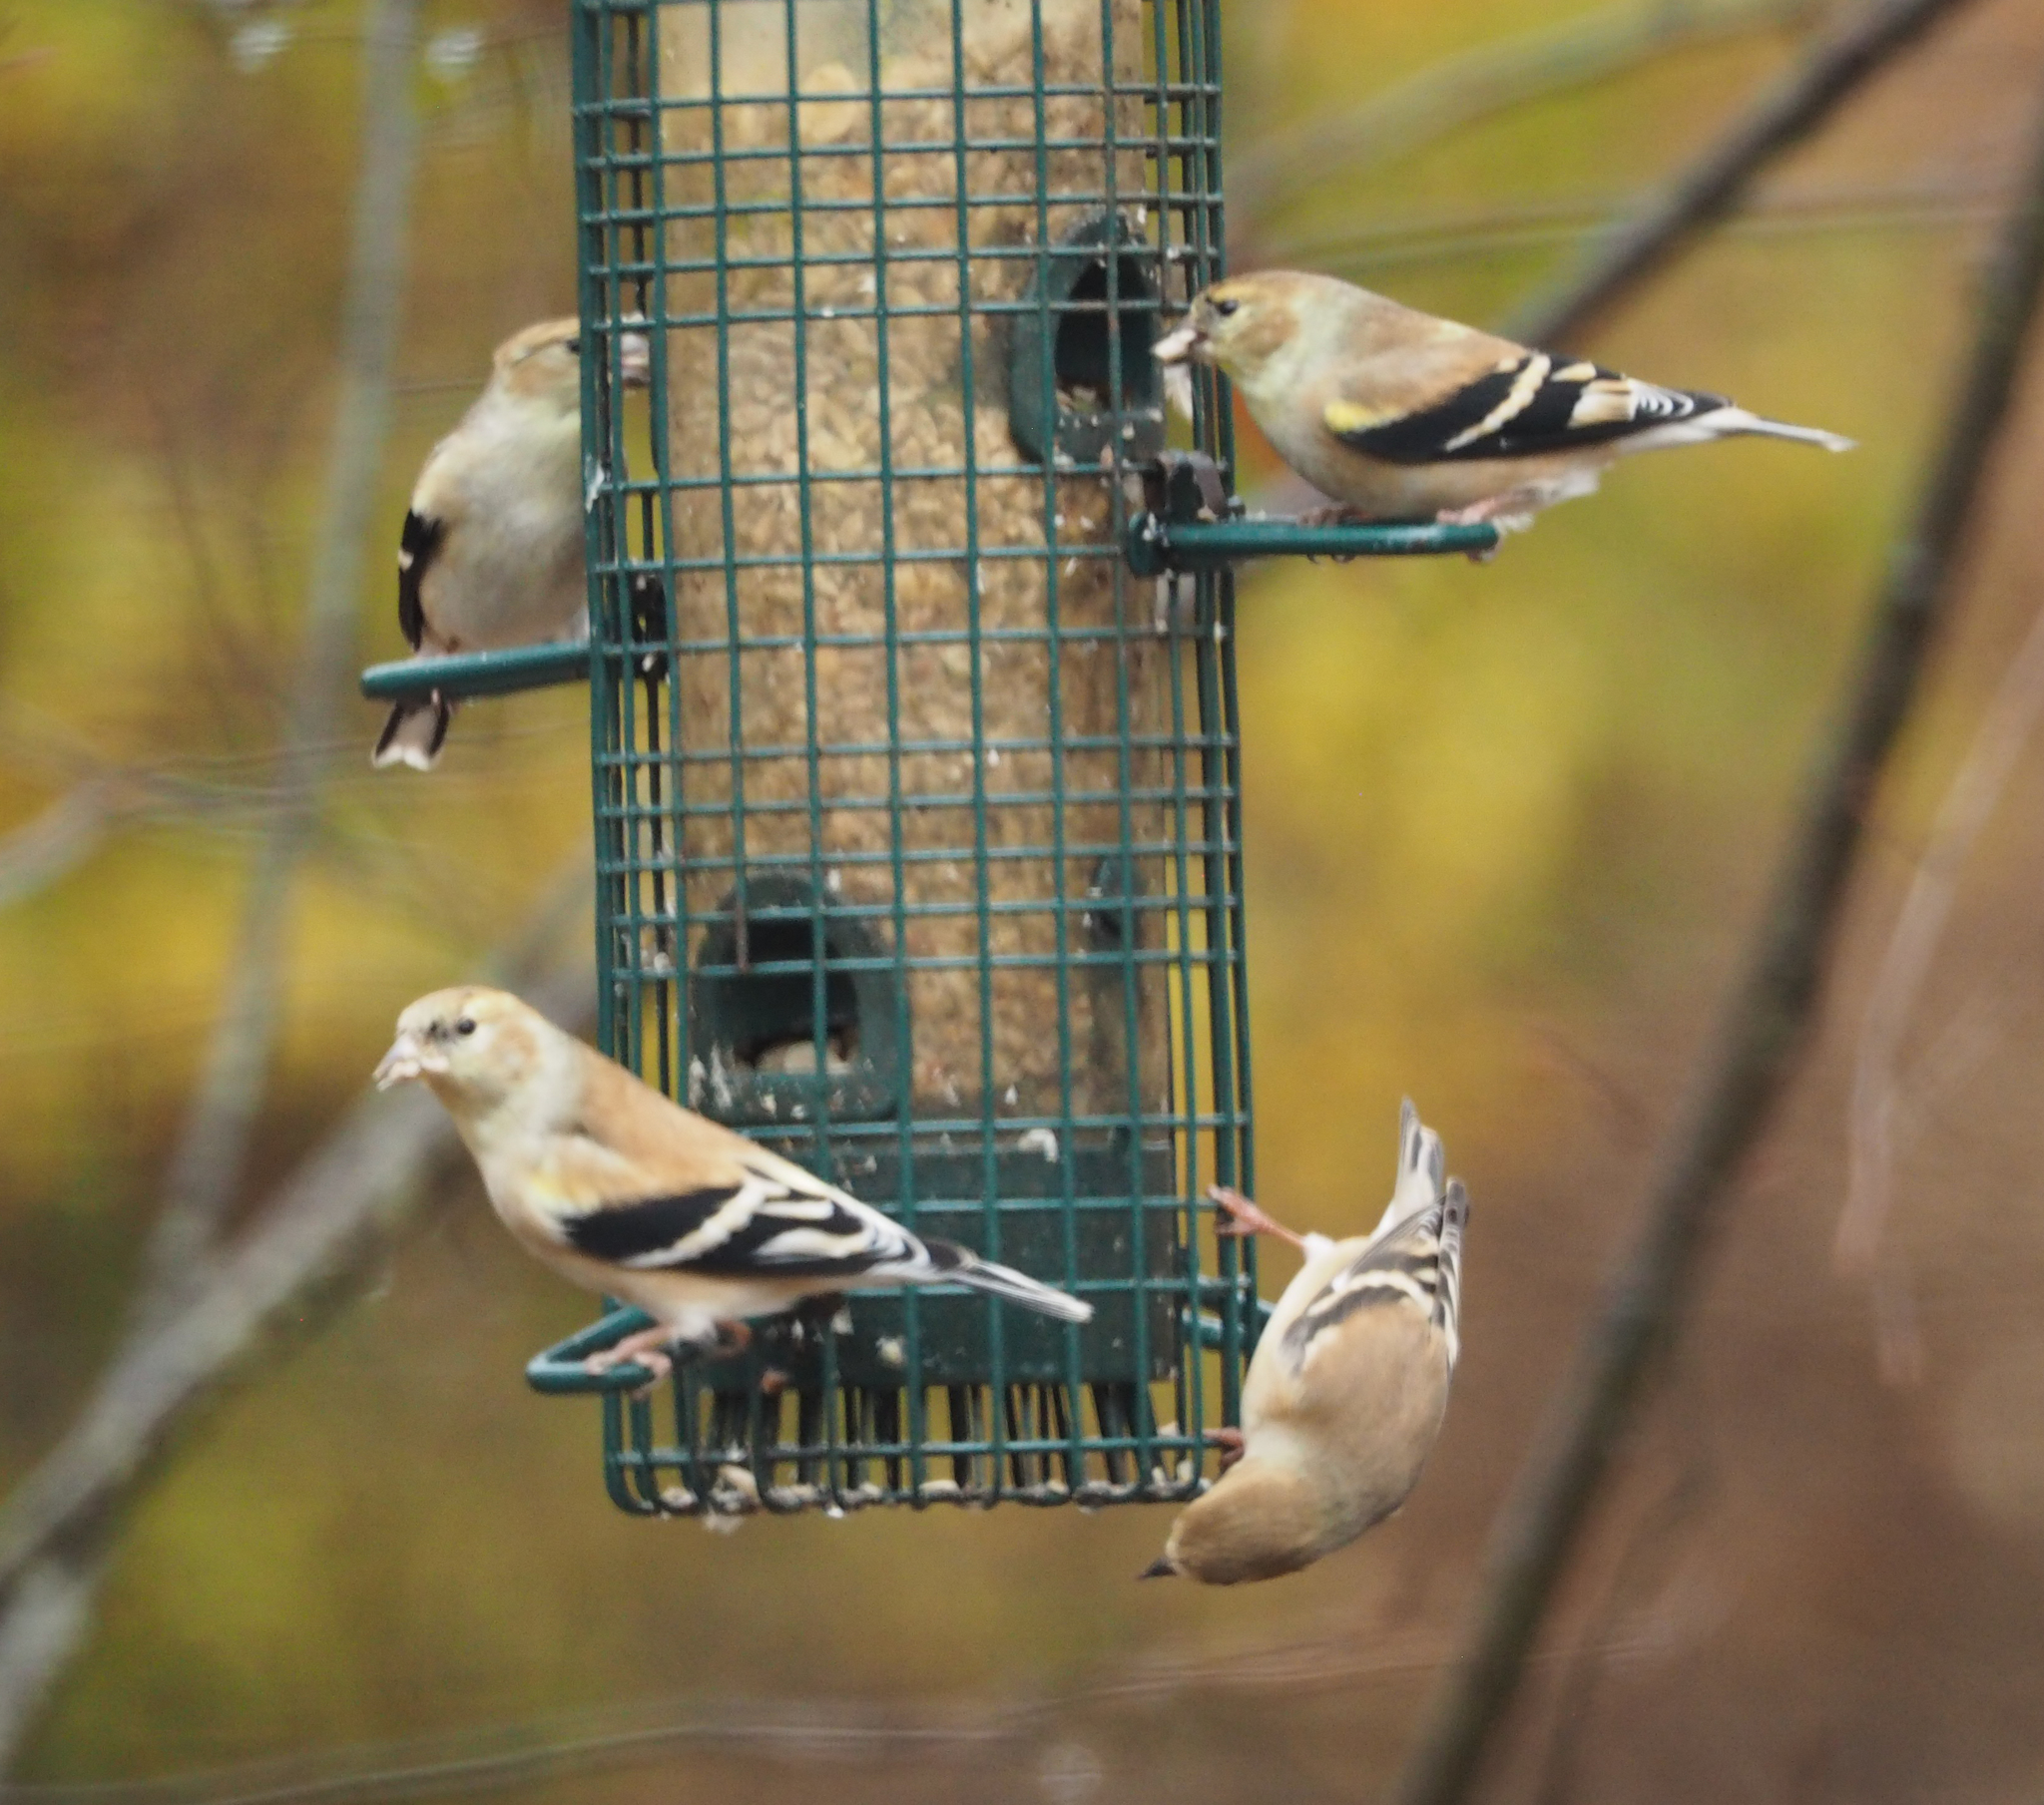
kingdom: Animalia
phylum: Chordata
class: Aves
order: Passeriformes
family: Fringillidae
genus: Spinus
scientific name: Spinus tristis
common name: American goldfinch
